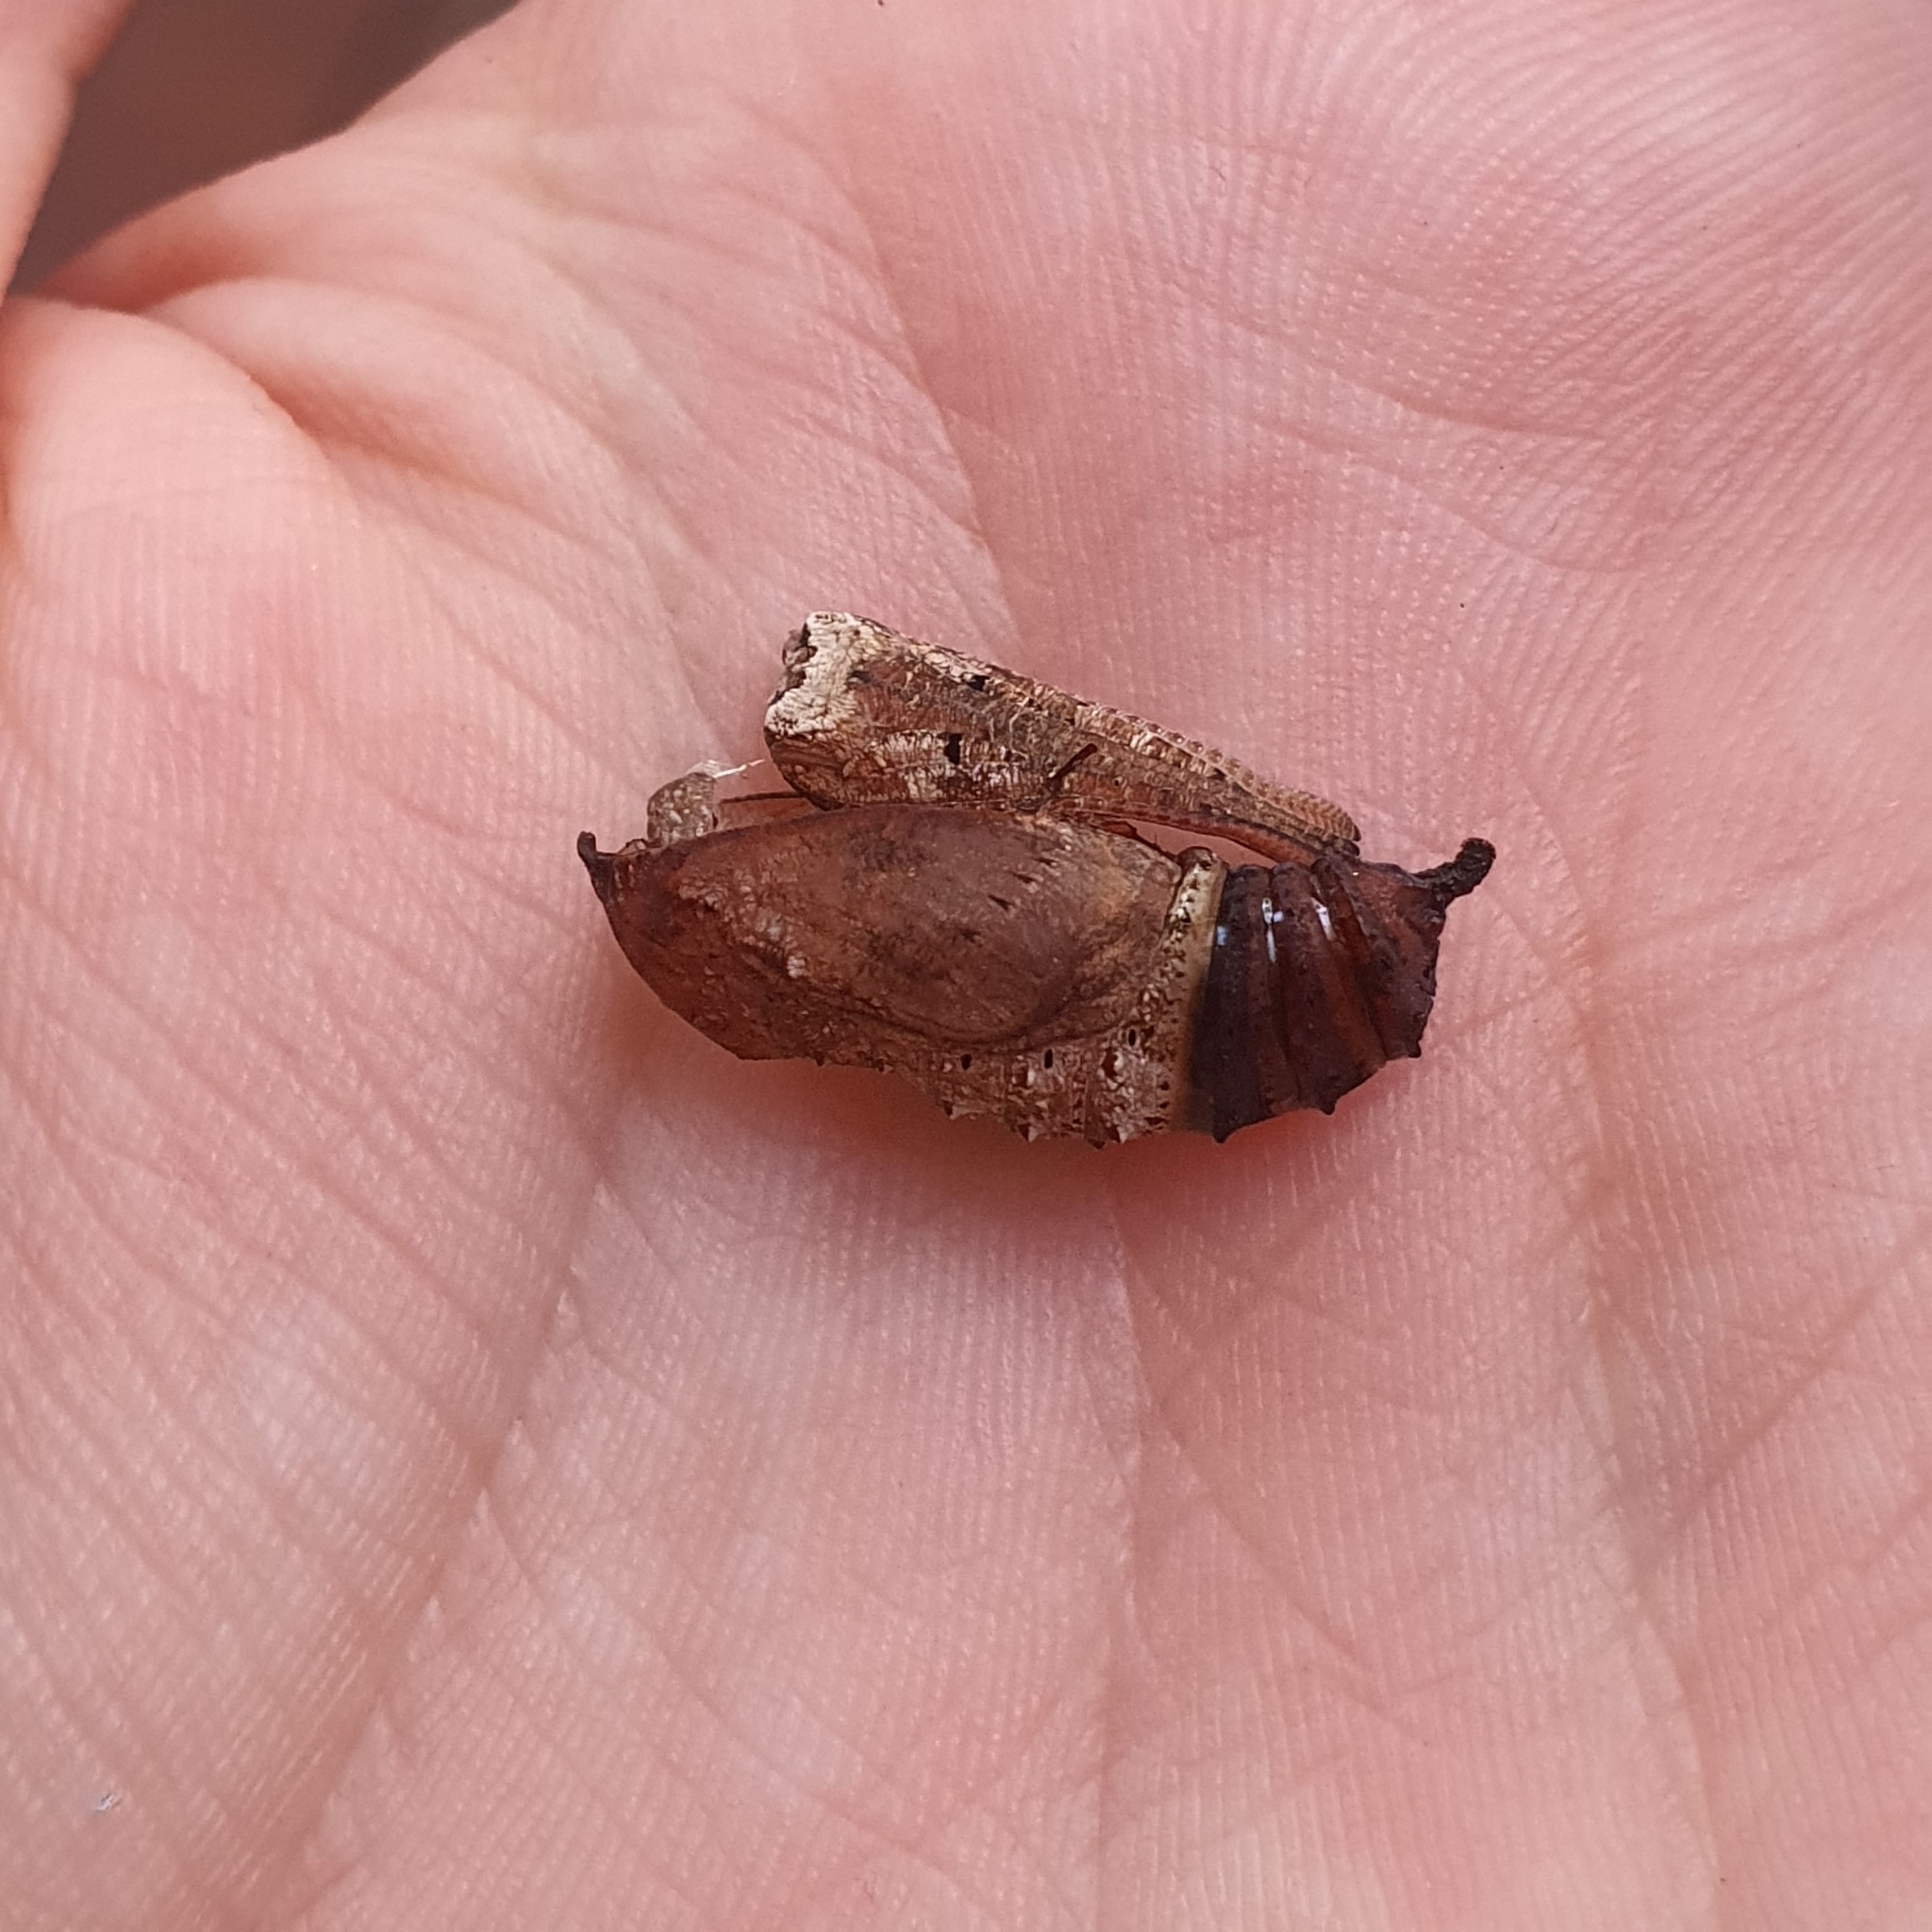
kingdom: Animalia
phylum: Arthropoda
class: Insecta
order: Lepidoptera
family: Nymphalidae
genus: Junonia
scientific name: Junonia villida
